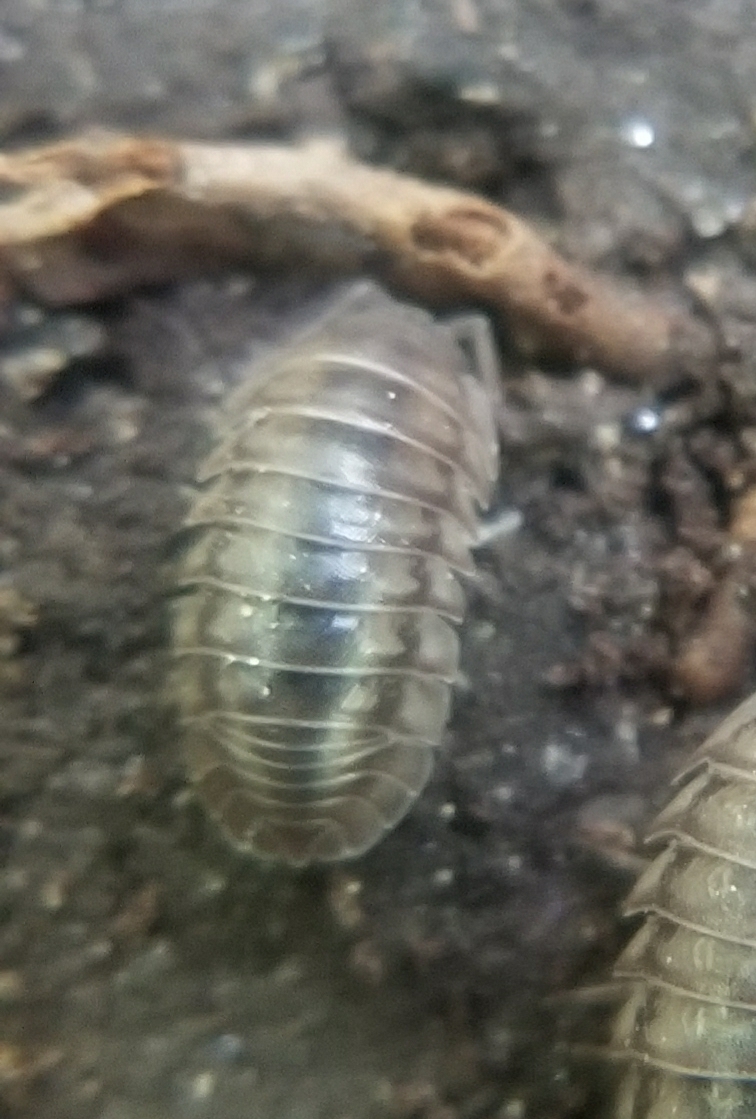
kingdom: Animalia
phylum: Arthropoda
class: Malacostraca
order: Isopoda
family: Armadillidiidae
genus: Armadillidium
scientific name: Armadillidium nasatum
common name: Isopod
